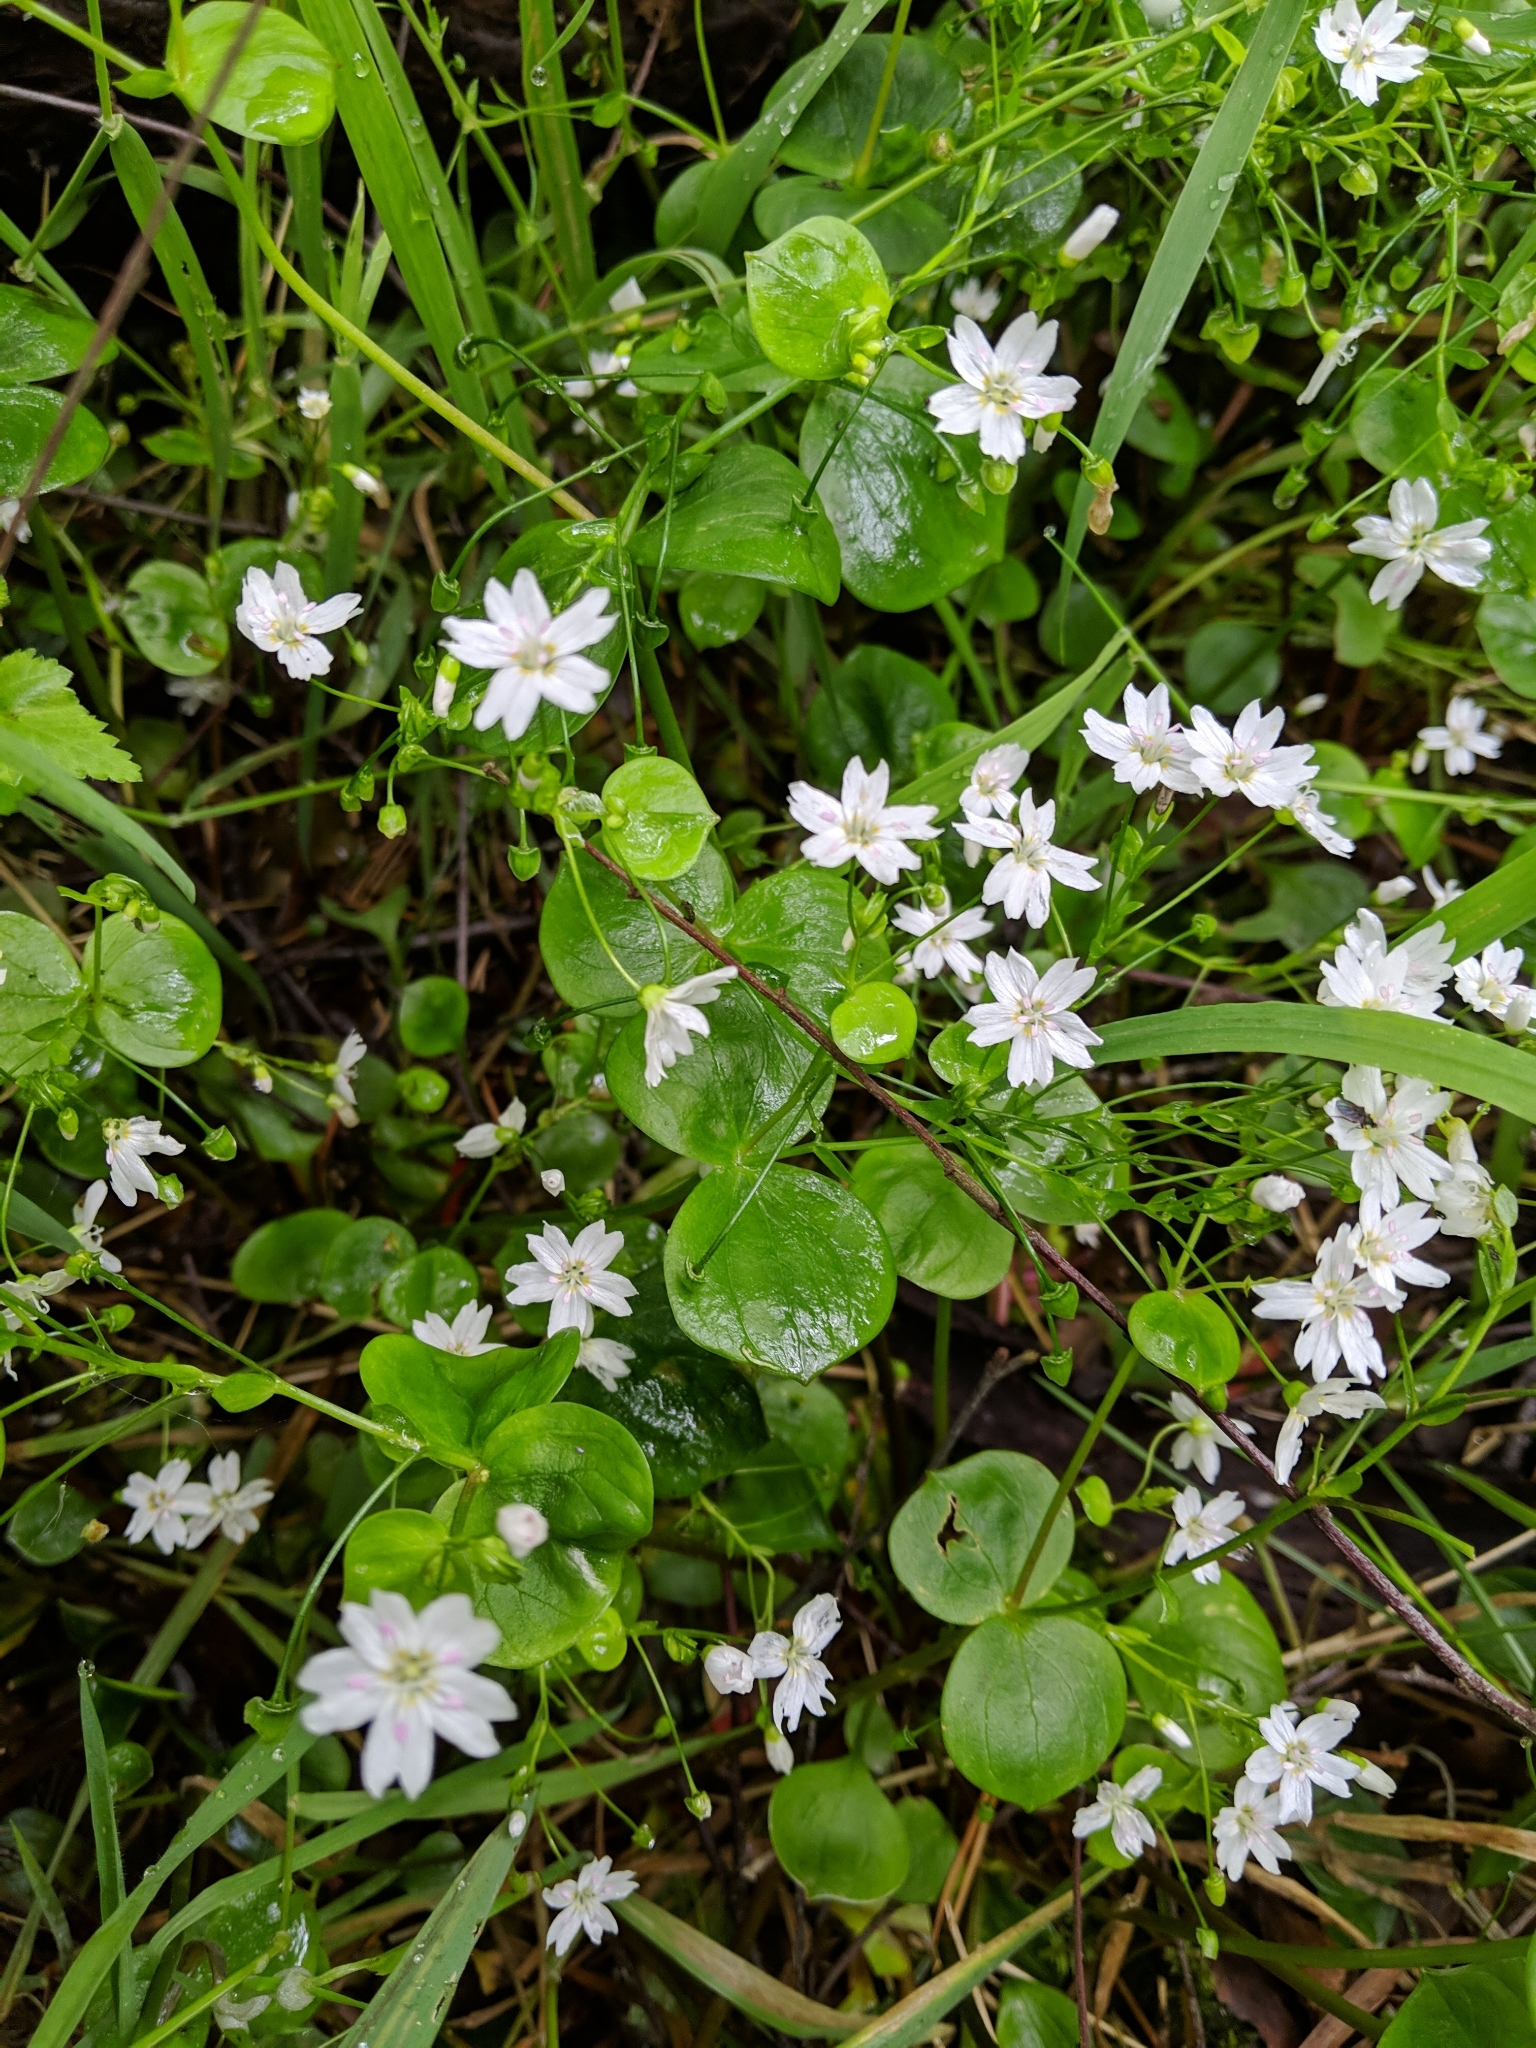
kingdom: Plantae
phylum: Tracheophyta
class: Magnoliopsida
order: Caryophyllales
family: Montiaceae
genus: Claytonia
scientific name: Claytonia sibirica
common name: Pink purslane
